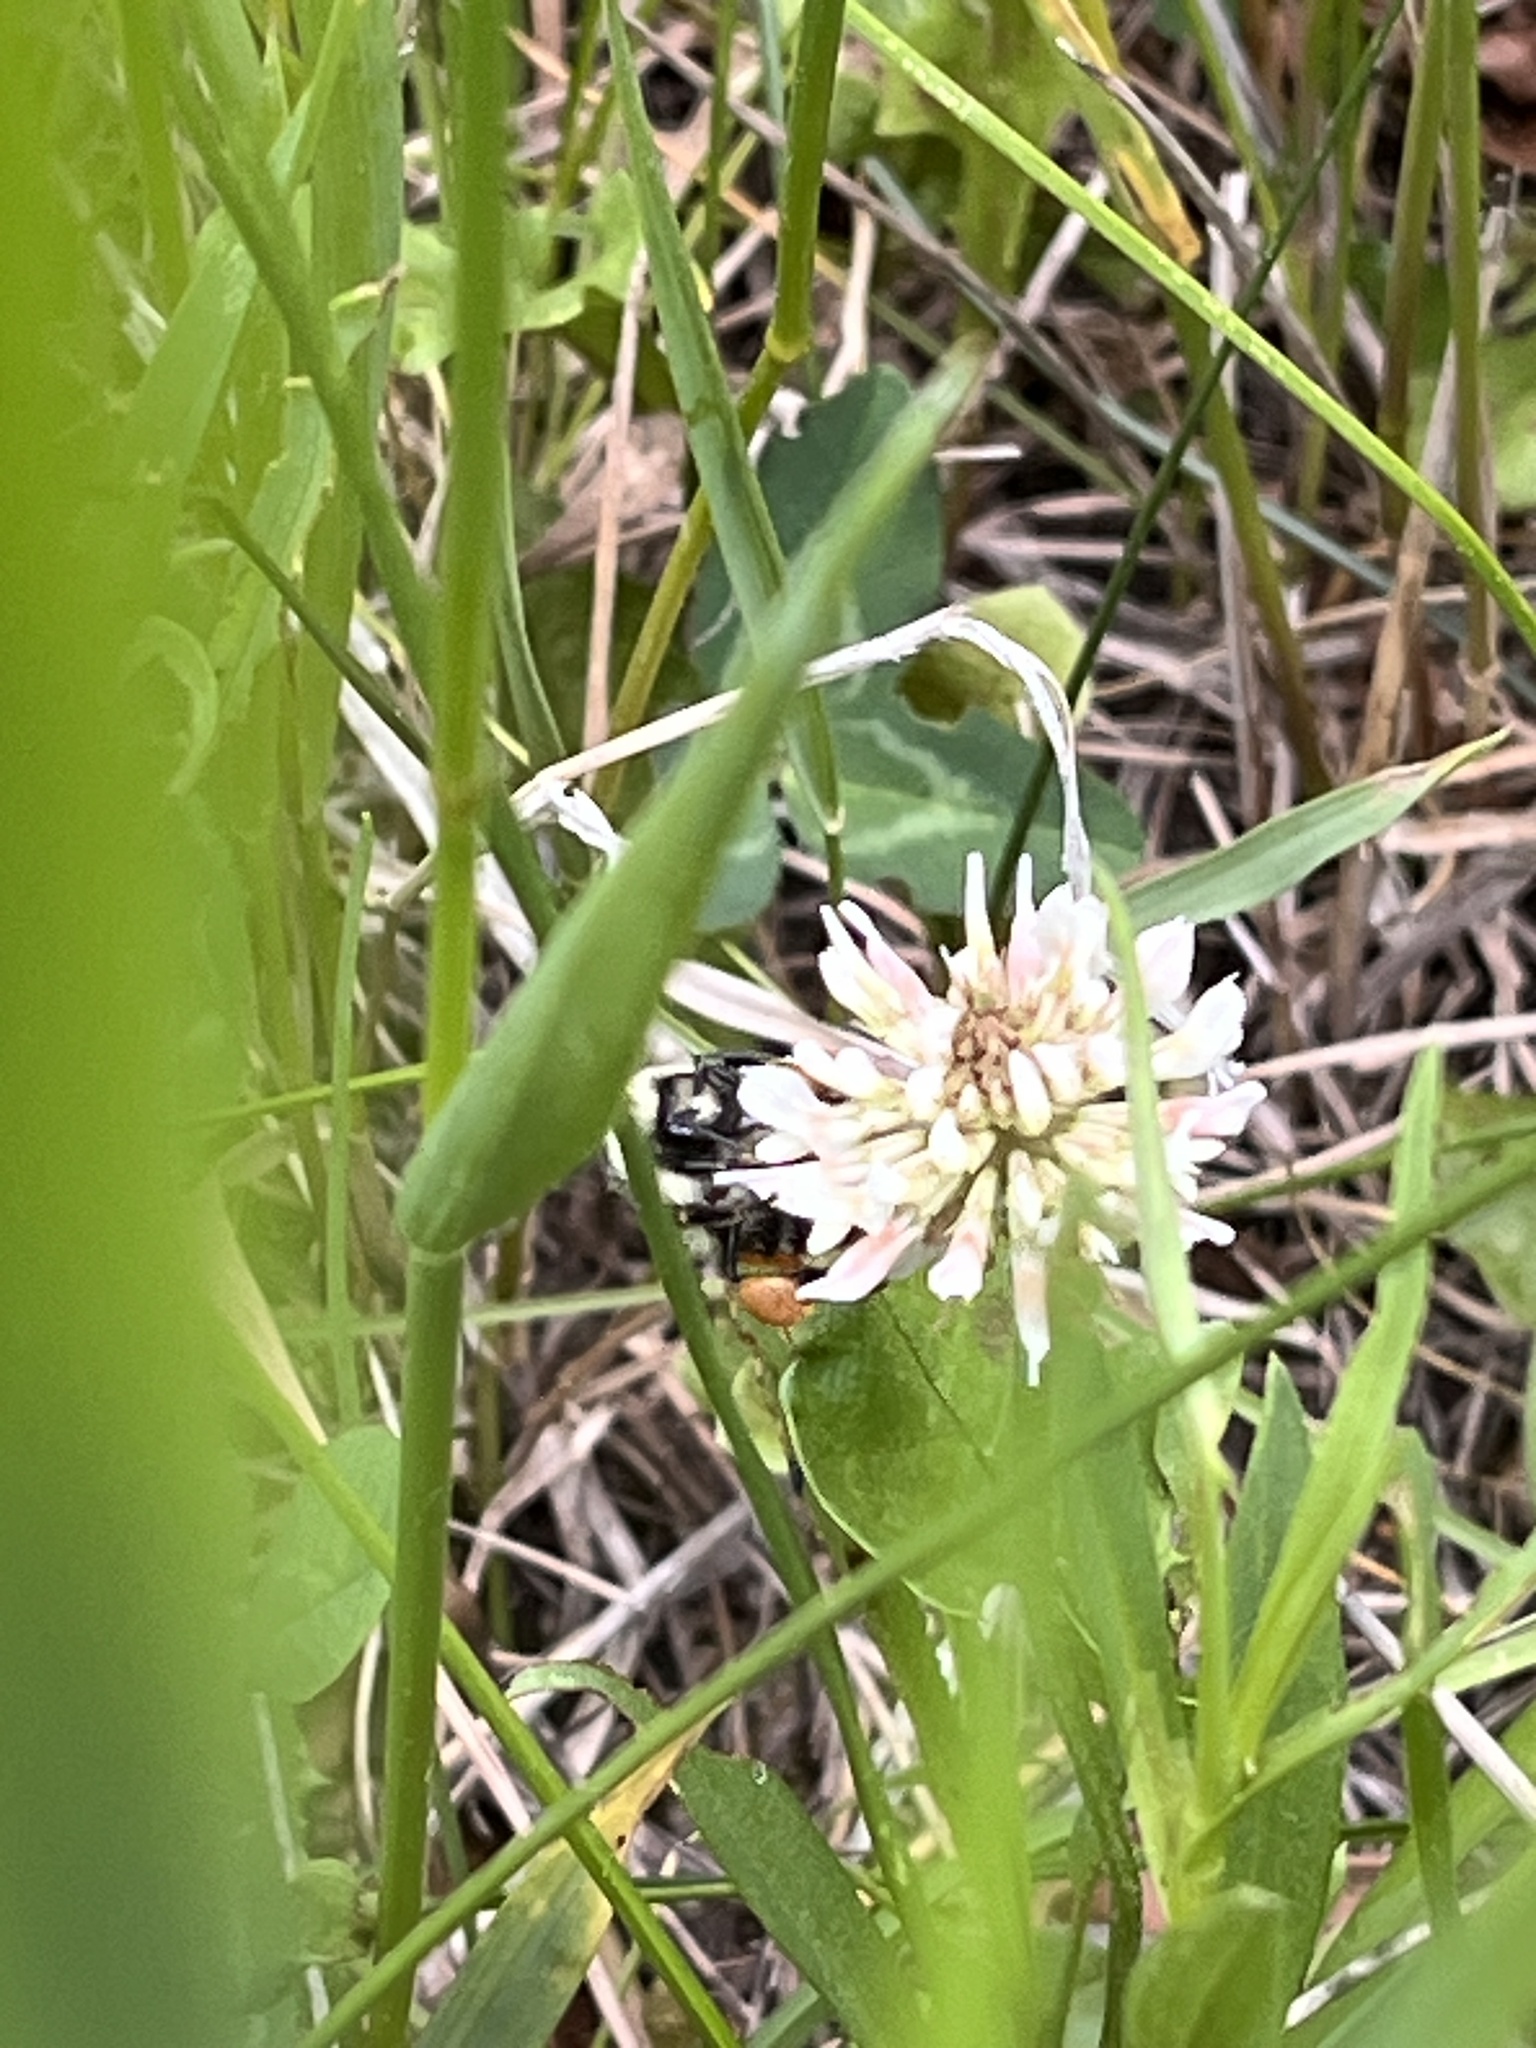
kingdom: Plantae
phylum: Tracheophyta
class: Magnoliopsida
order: Fabales
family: Fabaceae
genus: Trifolium
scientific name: Trifolium repens
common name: White clover
